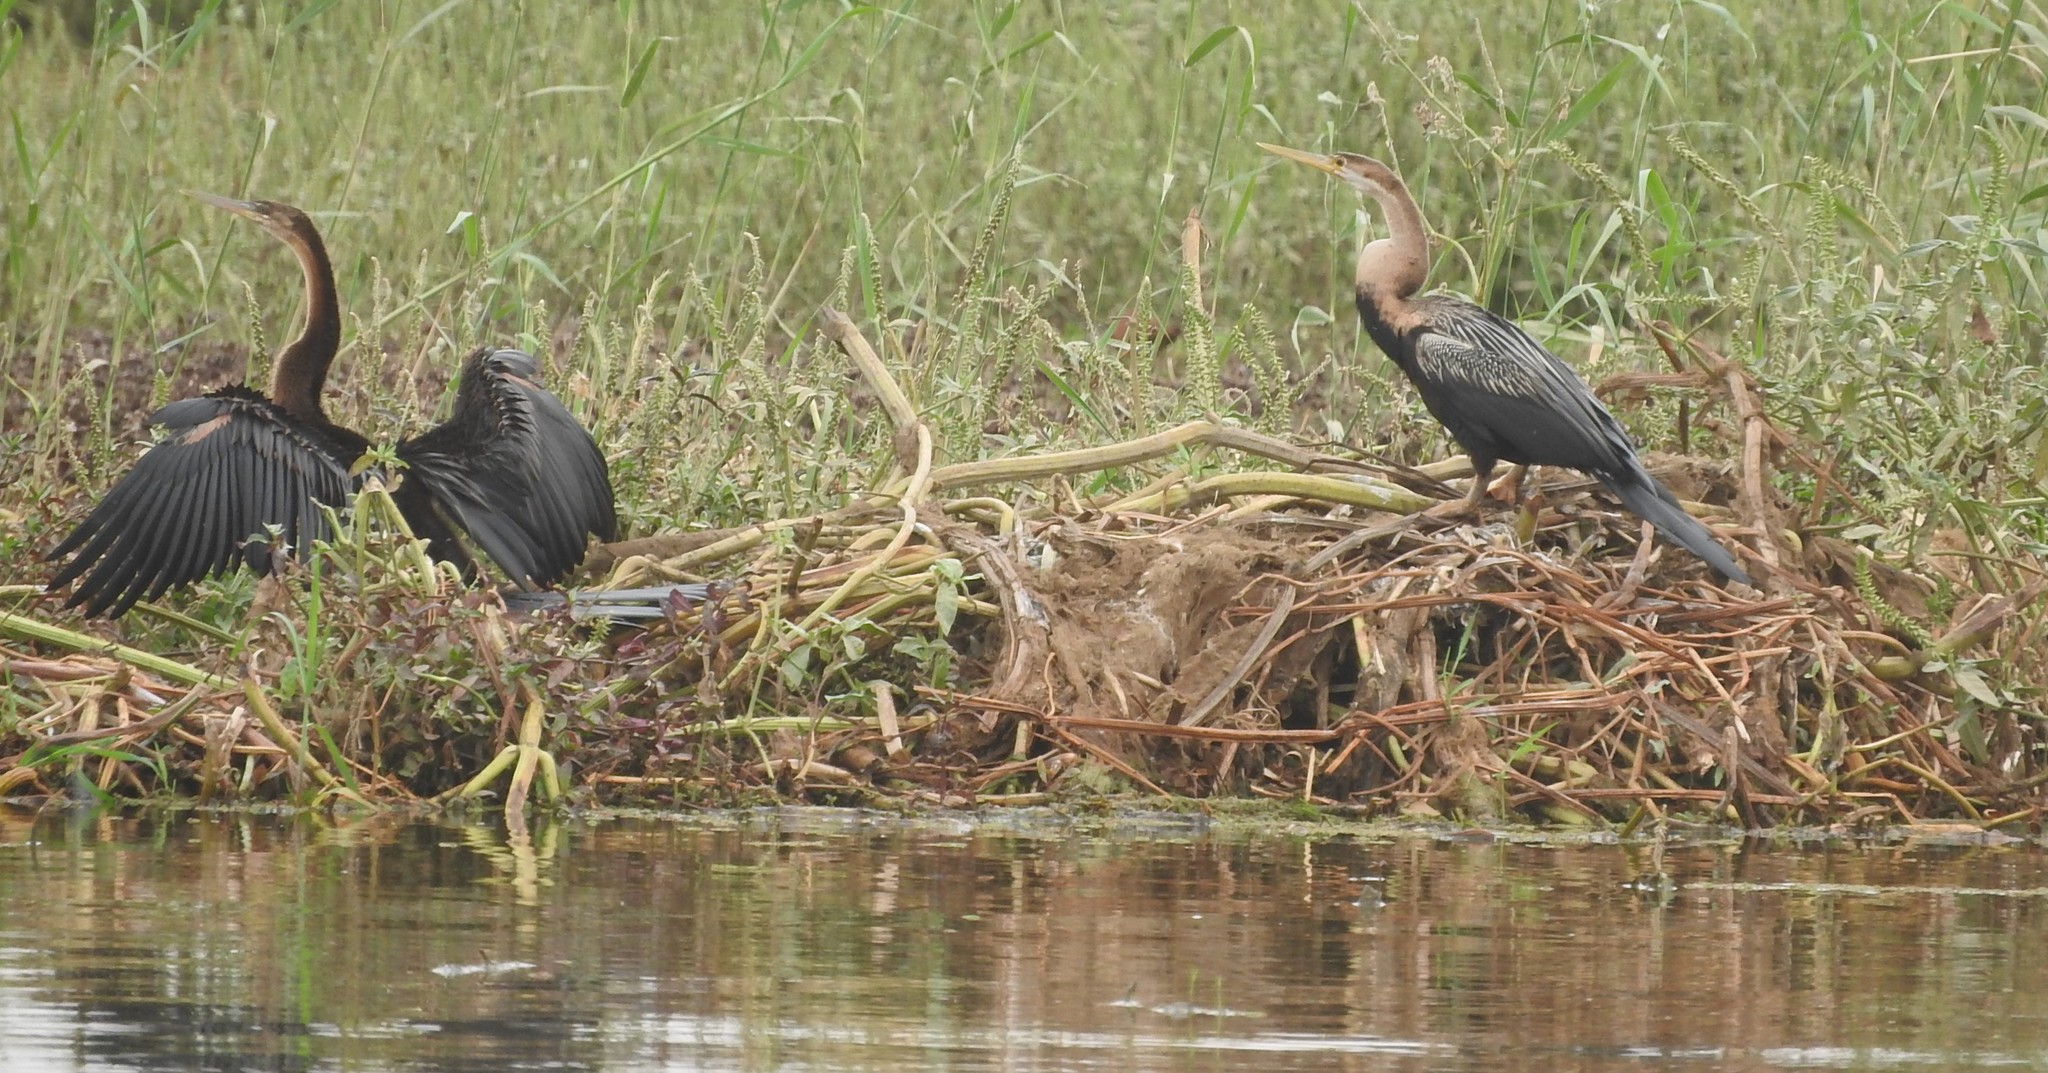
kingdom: Animalia
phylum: Chordata
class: Aves
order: Suliformes
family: Anhingidae
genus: Anhinga
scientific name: Anhinga rufa
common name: African darter
